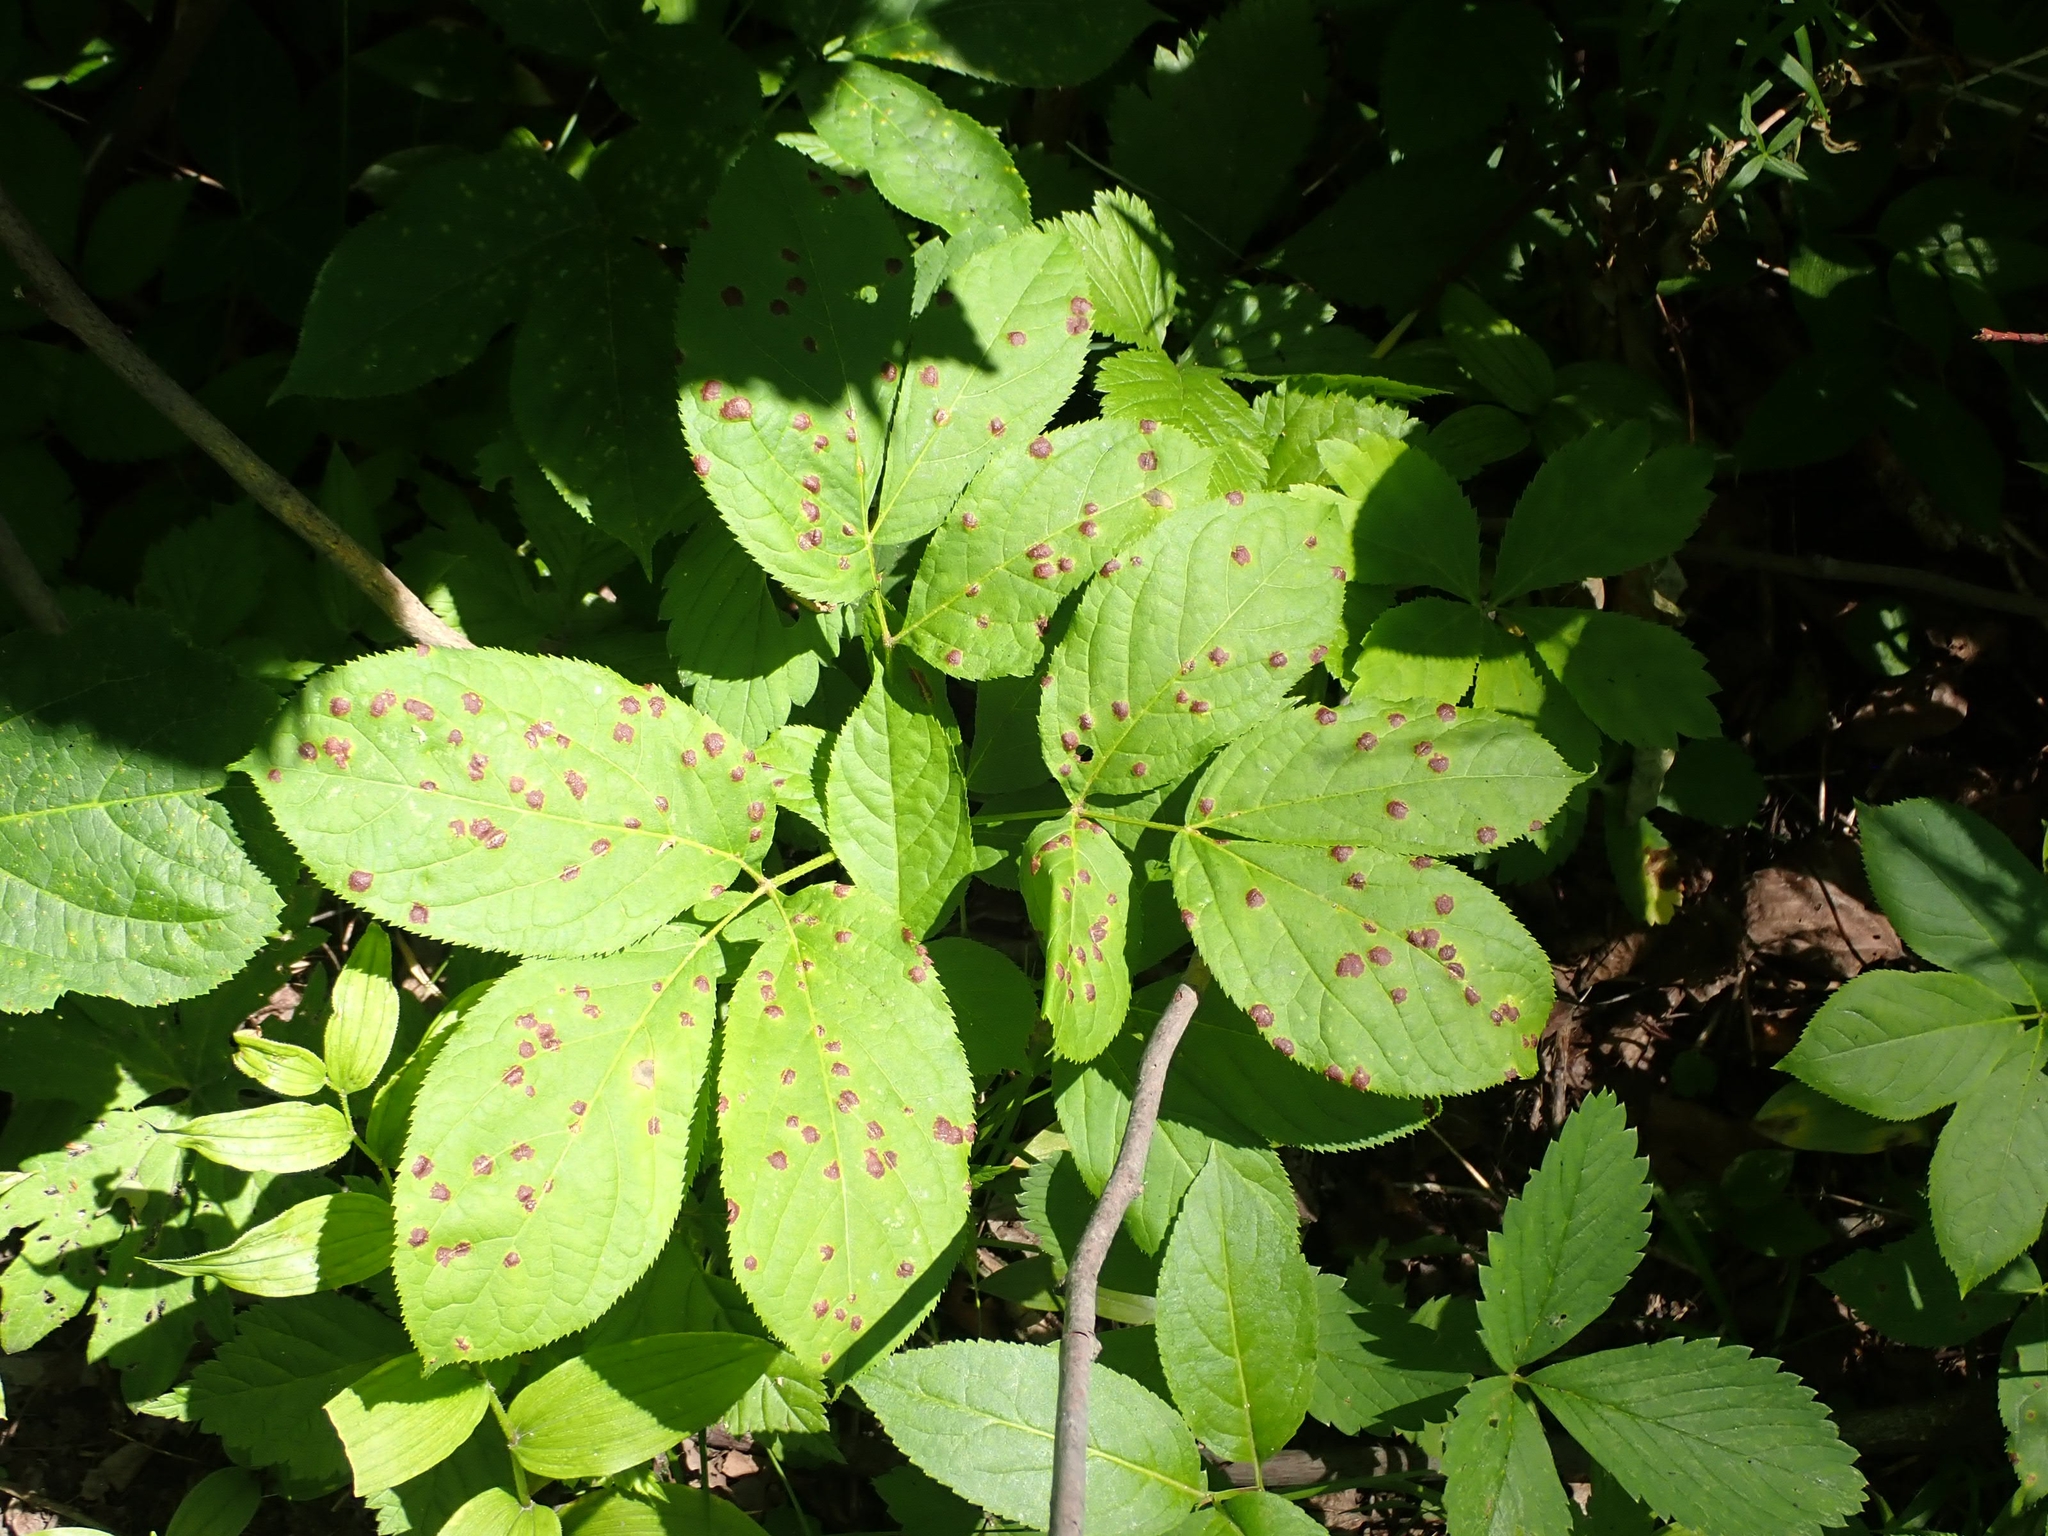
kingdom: Plantae
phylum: Tracheophyta
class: Magnoliopsida
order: Apiales
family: Araliaceae
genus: Aralia
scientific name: Aralia nudicaulis
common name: Wild sarsaparilla
